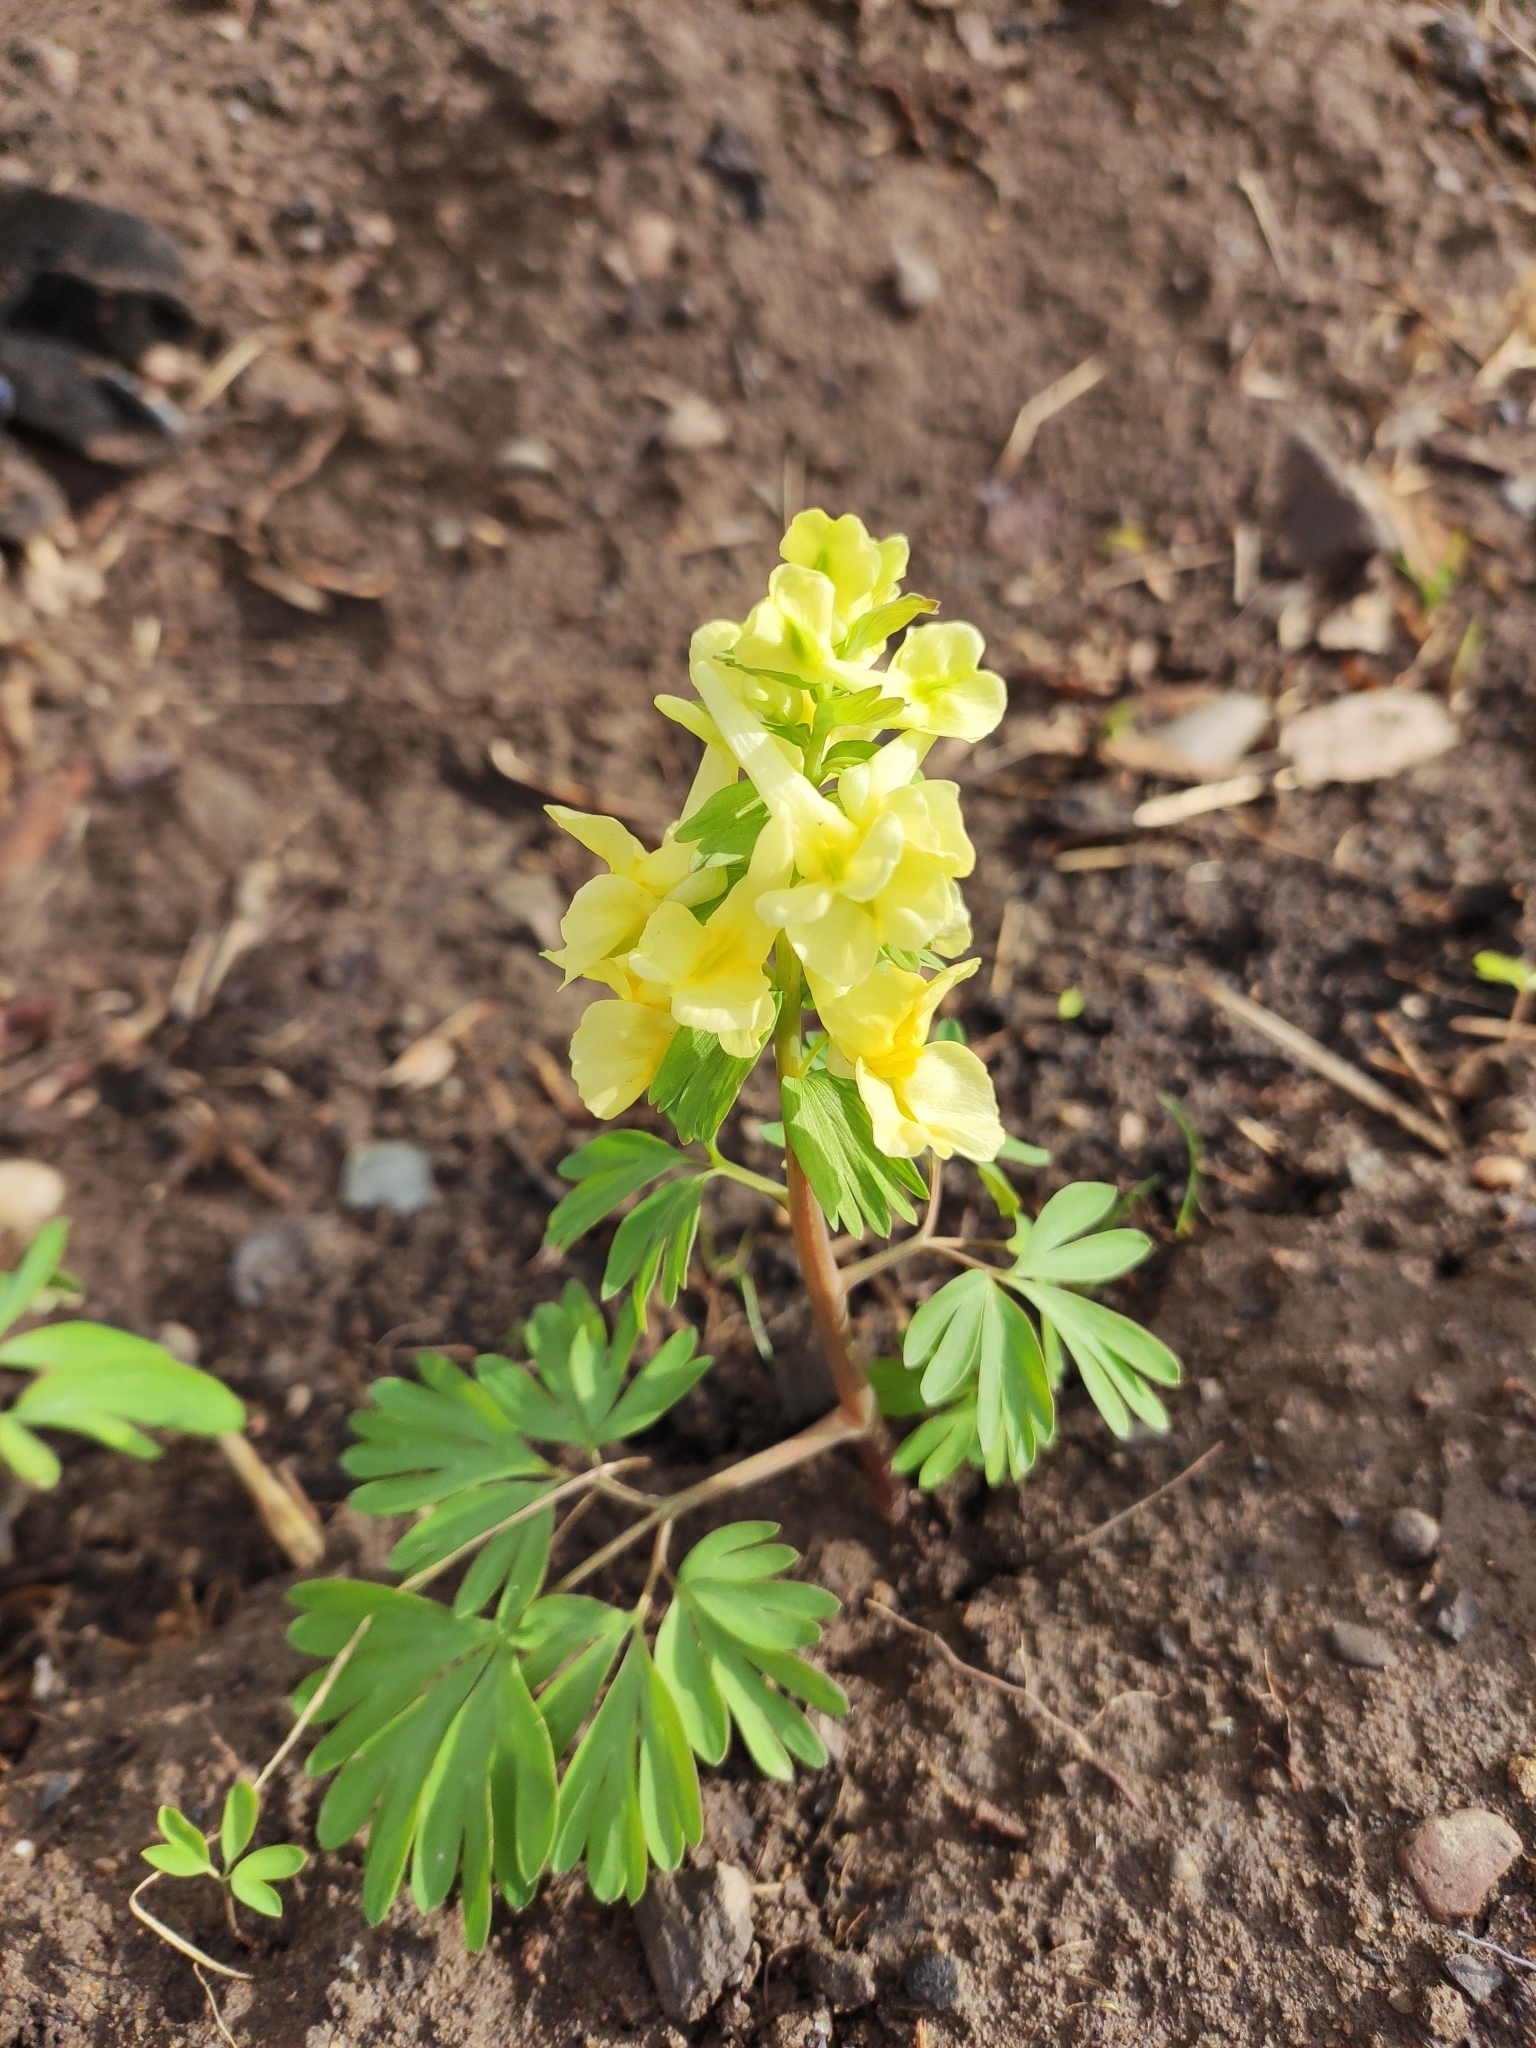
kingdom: Plantae
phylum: Tracheophyta
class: Magnoliopsida
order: Ranunculales
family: Papaveraceae
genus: Corydalis
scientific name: Corydalis bracteata
